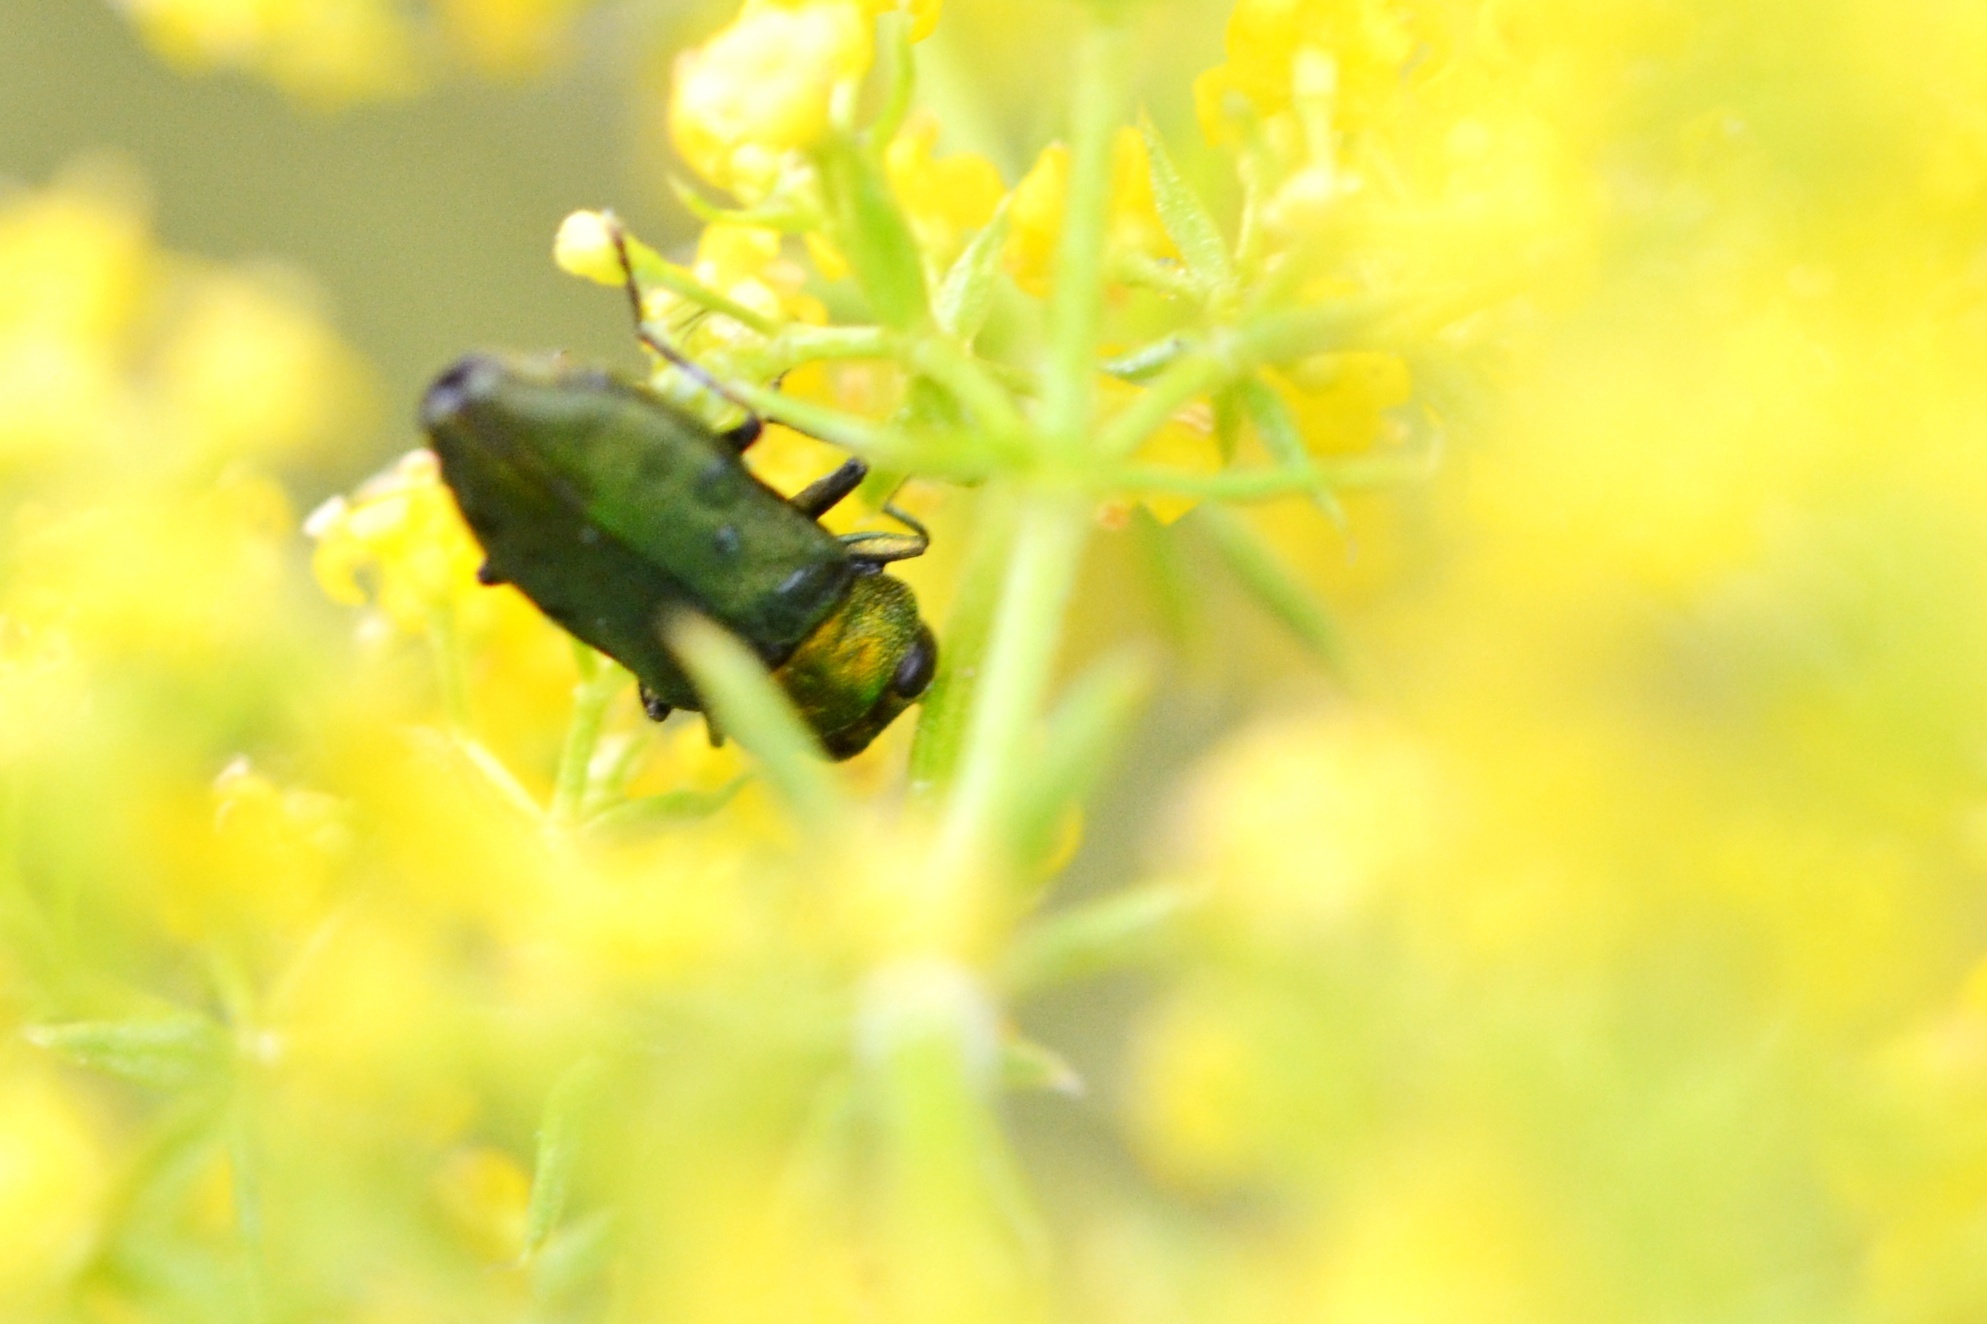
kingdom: Animalia
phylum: Arthropoda
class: Insecta
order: Coleoptera
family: Buprestidae
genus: Anthaxia
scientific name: Anthaxia nitidula
